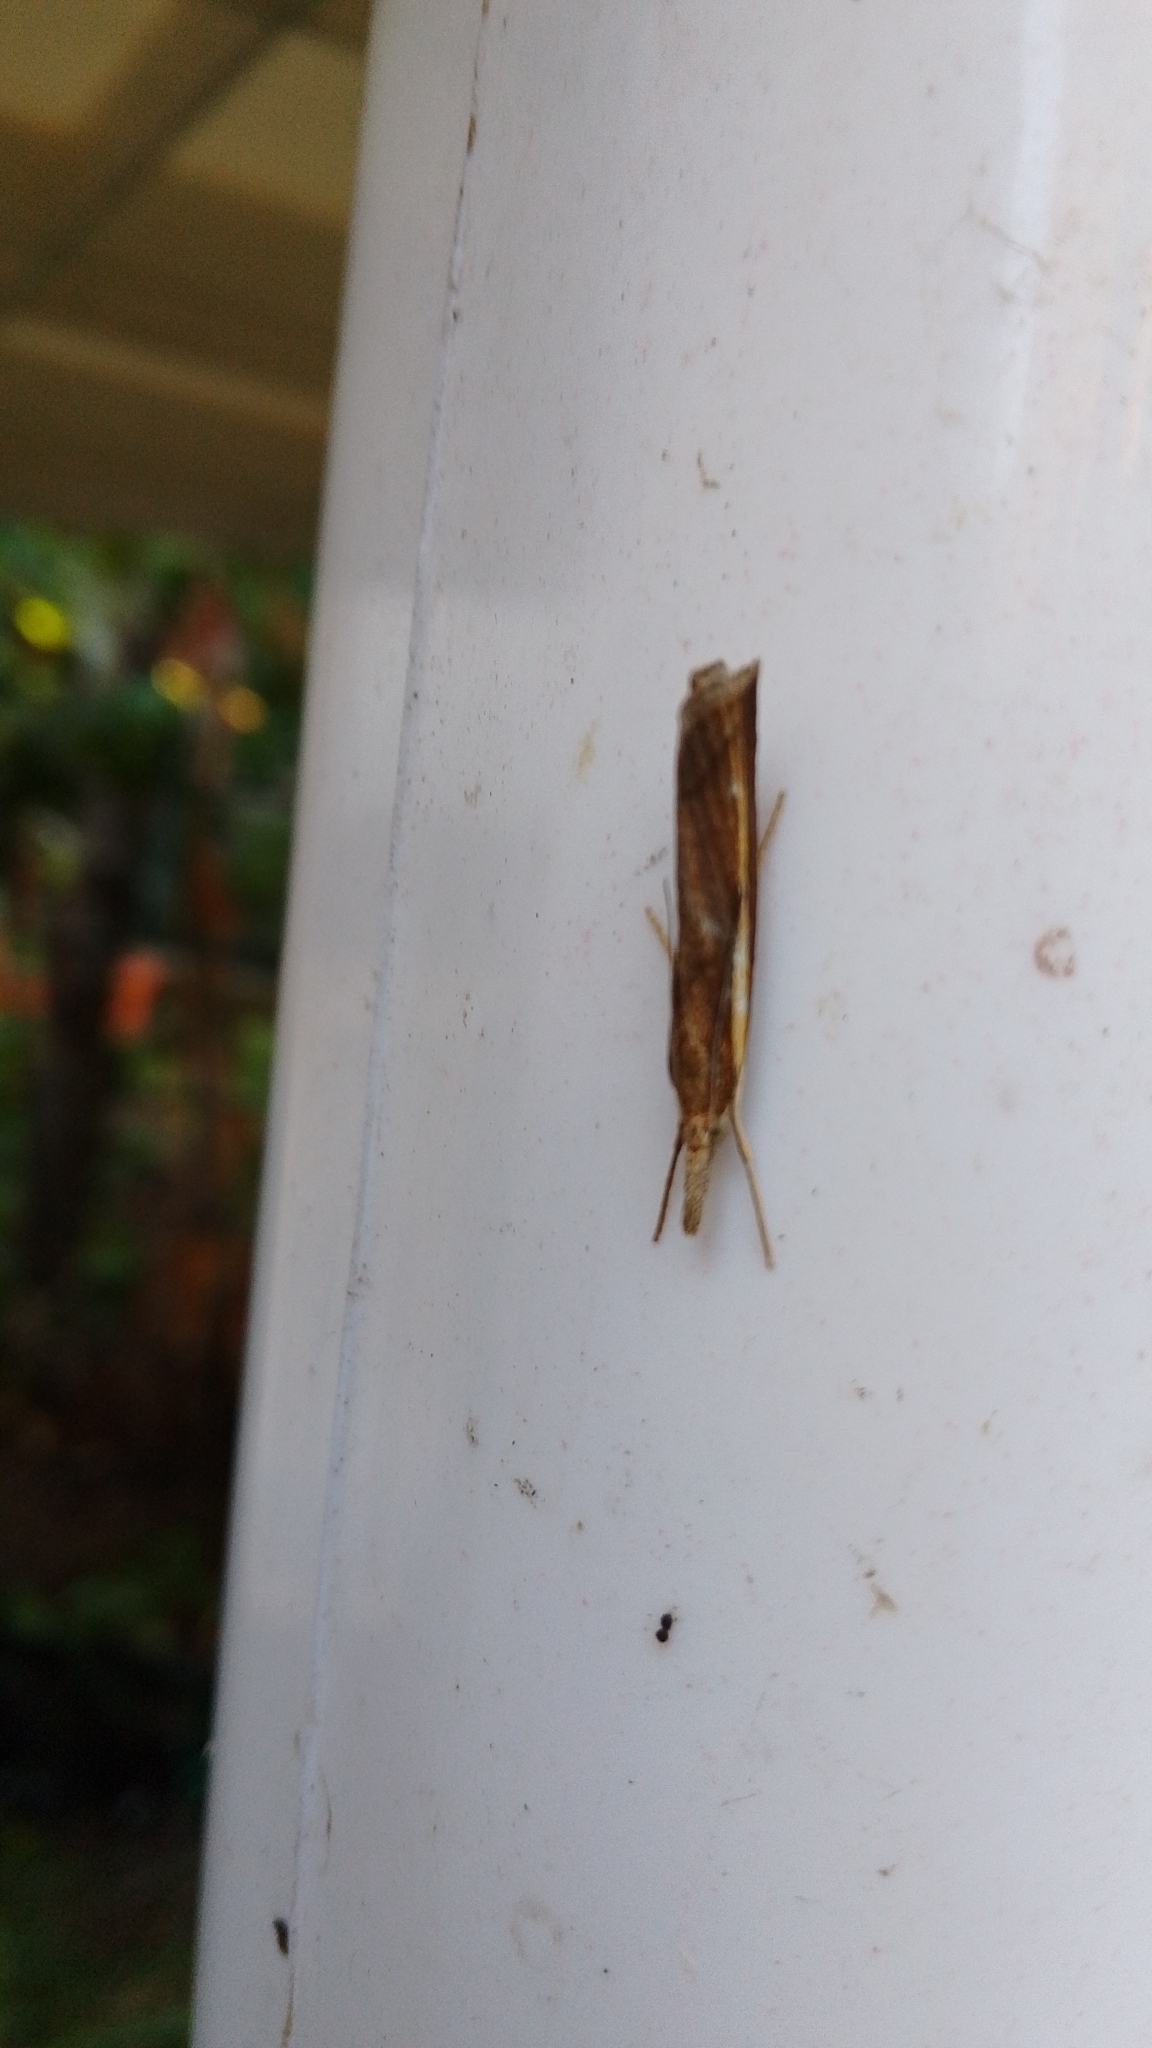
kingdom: Animalia
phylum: Arthropoda
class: Insecta
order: Lepidoptera
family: Crambidae
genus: Agriphila
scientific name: Agriphila tristellus
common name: Common grass-veneer
